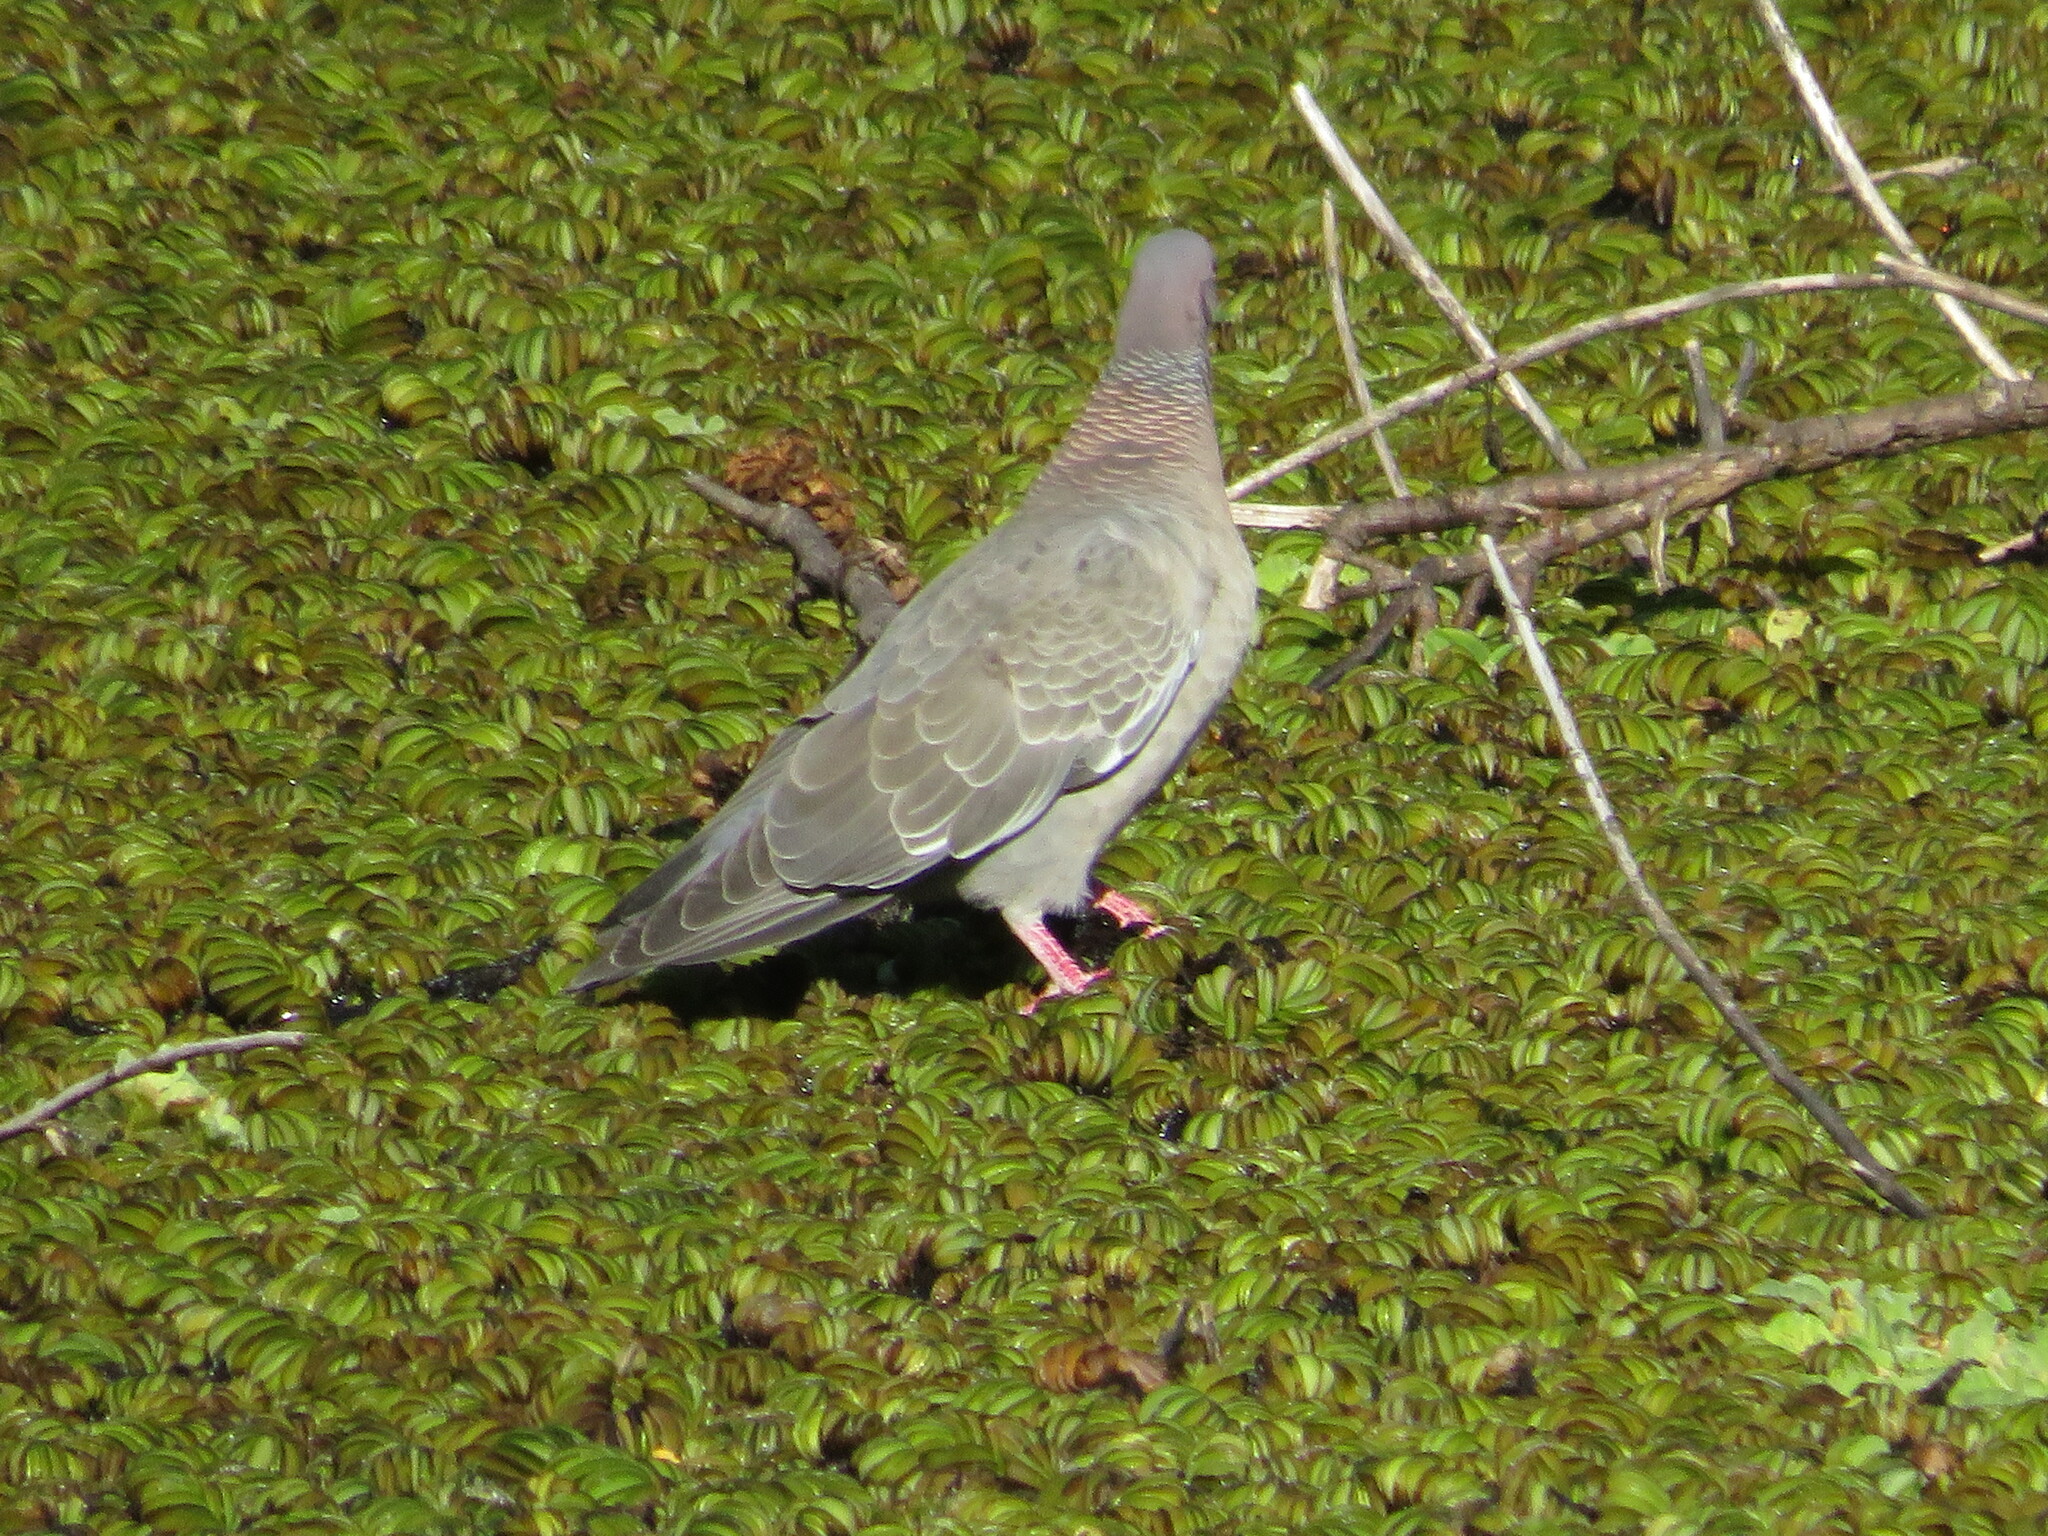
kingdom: Animalia
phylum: Chordata
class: Aves
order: Columbiformes
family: Columbidae
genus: Patagioenas
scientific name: Patagioenas picazuro
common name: Picazuro pigeon
